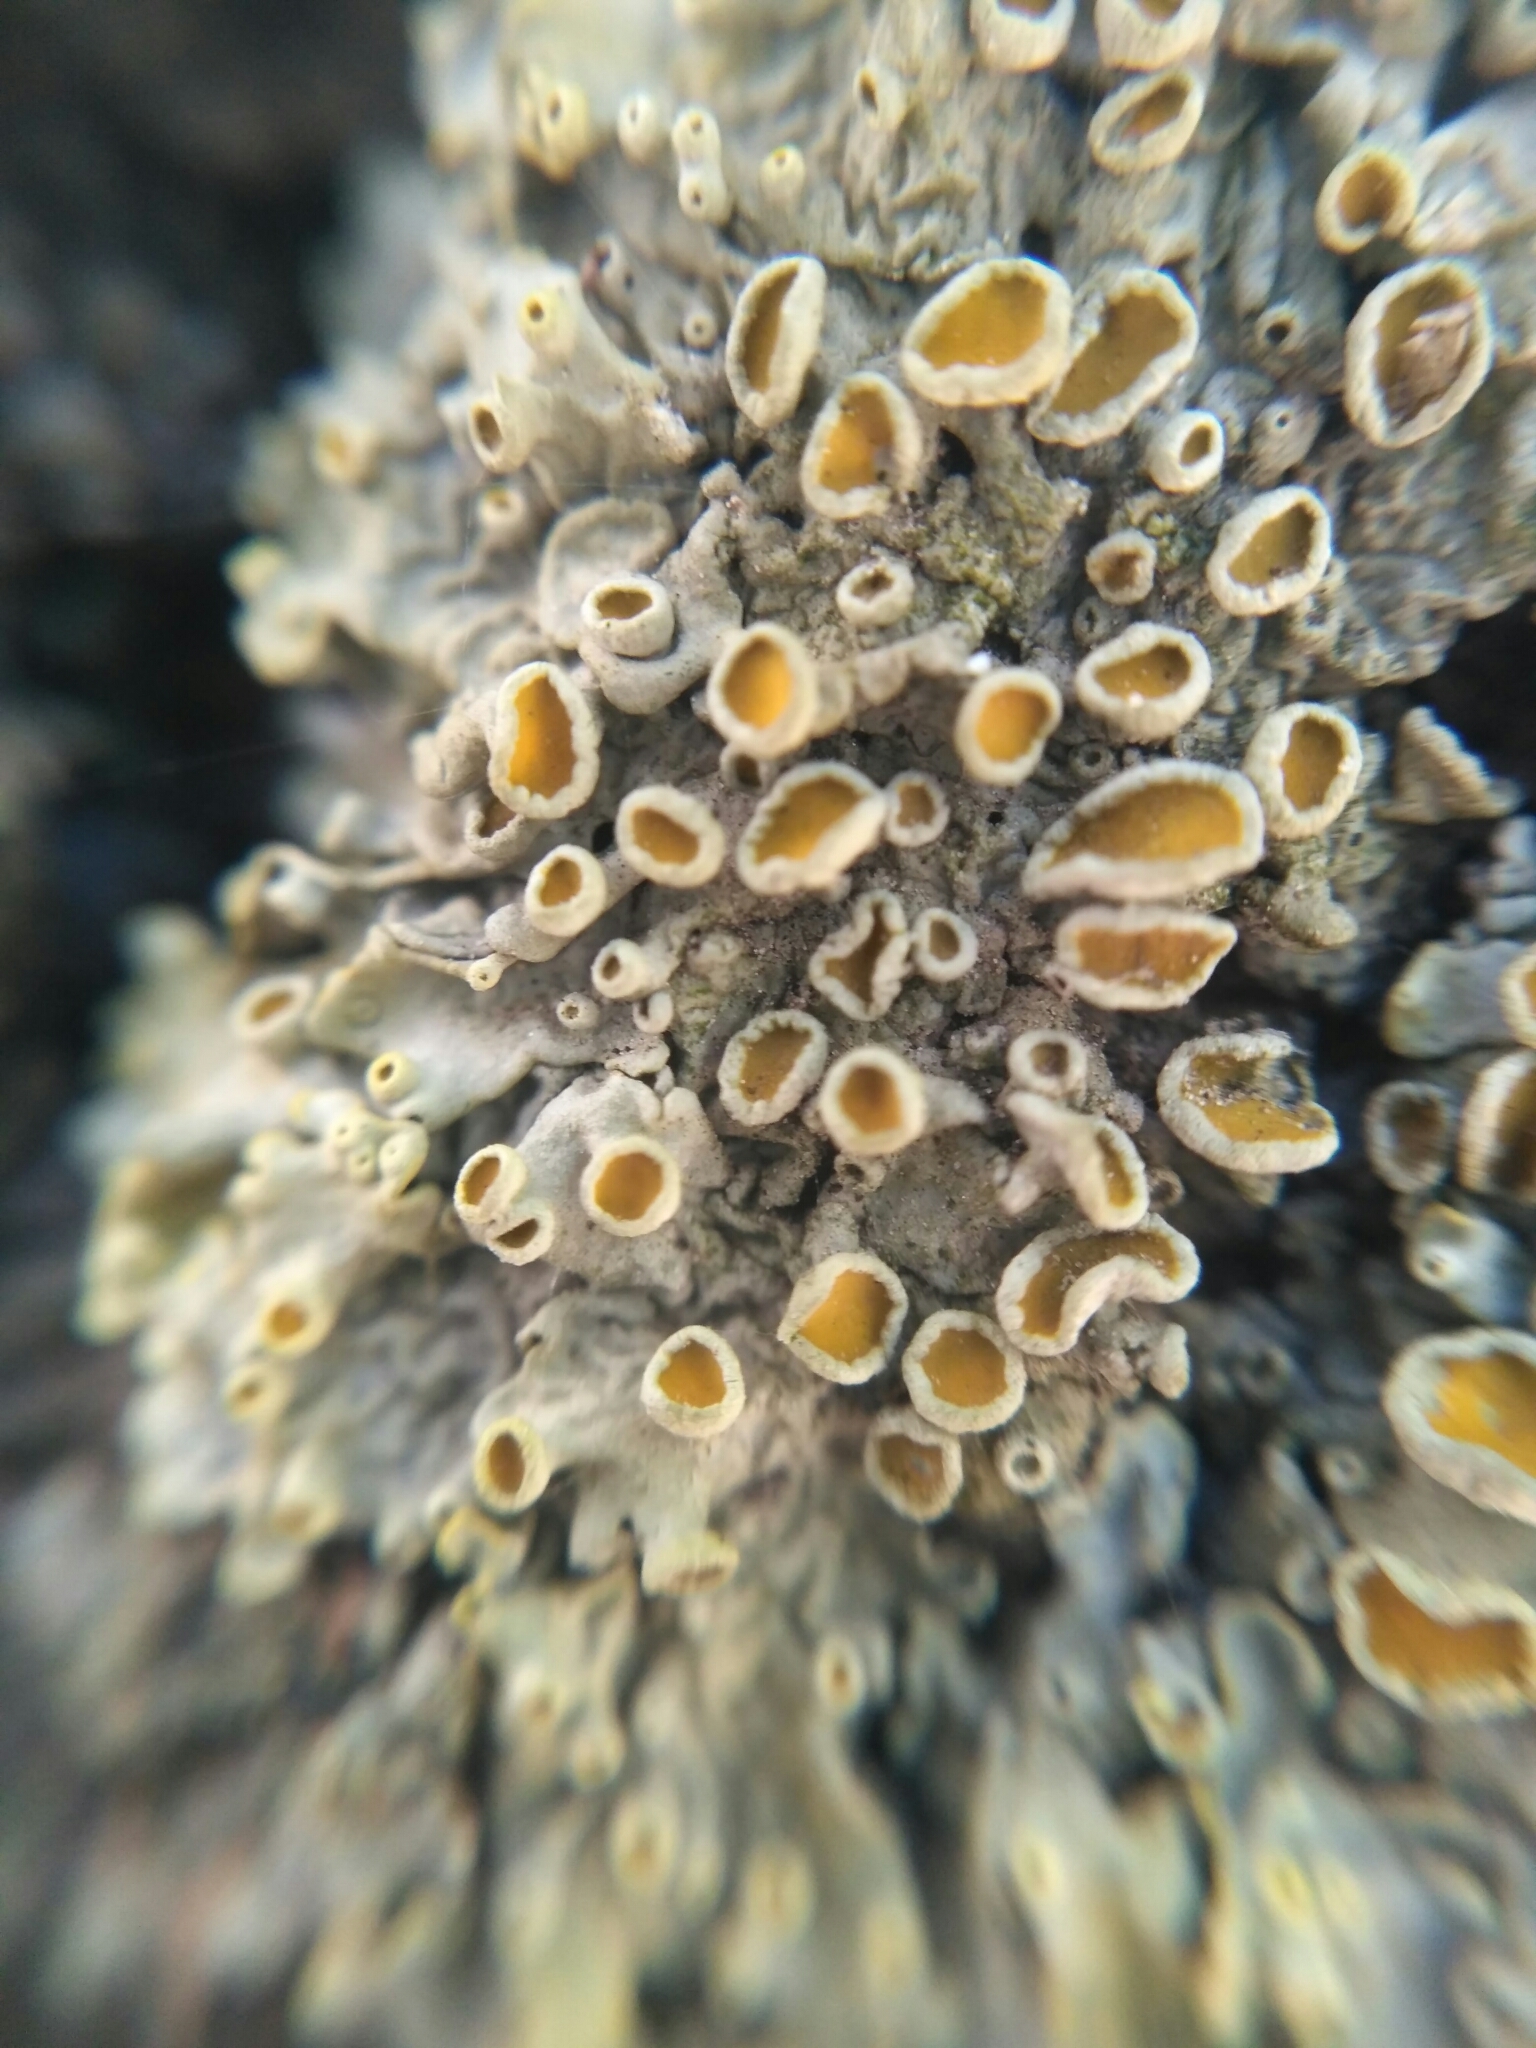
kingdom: Fungi
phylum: Ascomycota
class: Lecanoromycetes
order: Teloschistales
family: Teloschistaceae
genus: Xanthoria
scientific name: Xanthoria parietina
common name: Common orange lichen
